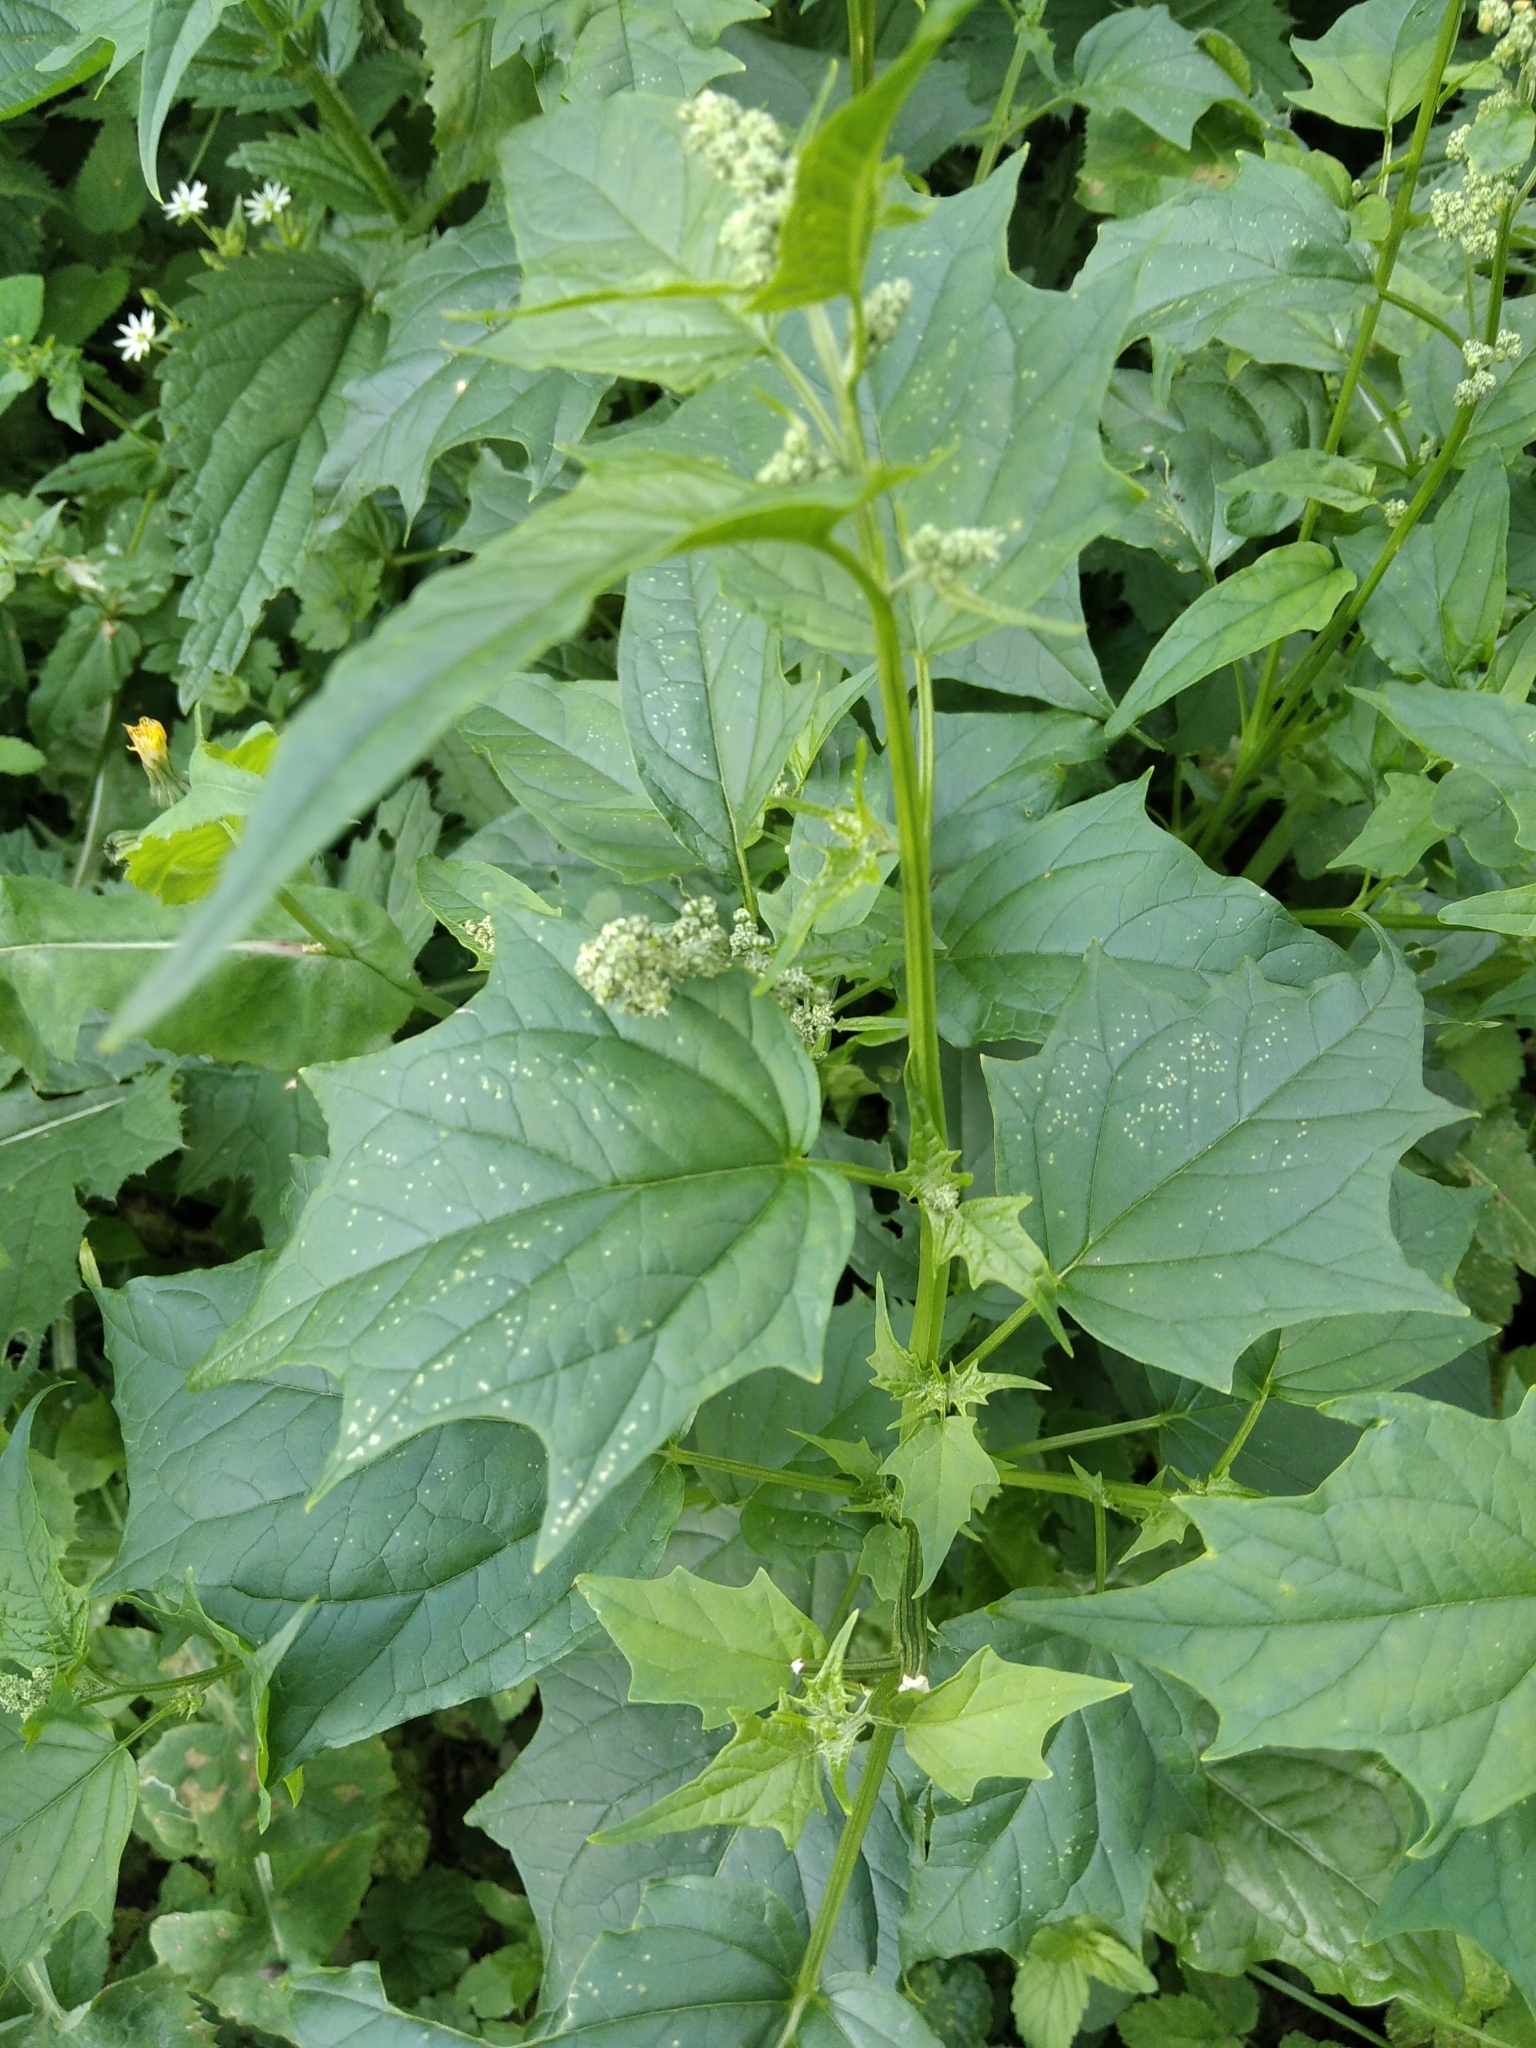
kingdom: Plantae
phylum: Tracheophyta
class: Magnoliopsida
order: Caryophyllales
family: Amaranthaceae
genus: Chenopodiastrum
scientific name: Chenopodiastrum hybridum
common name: Mapleleaf goosefoot
